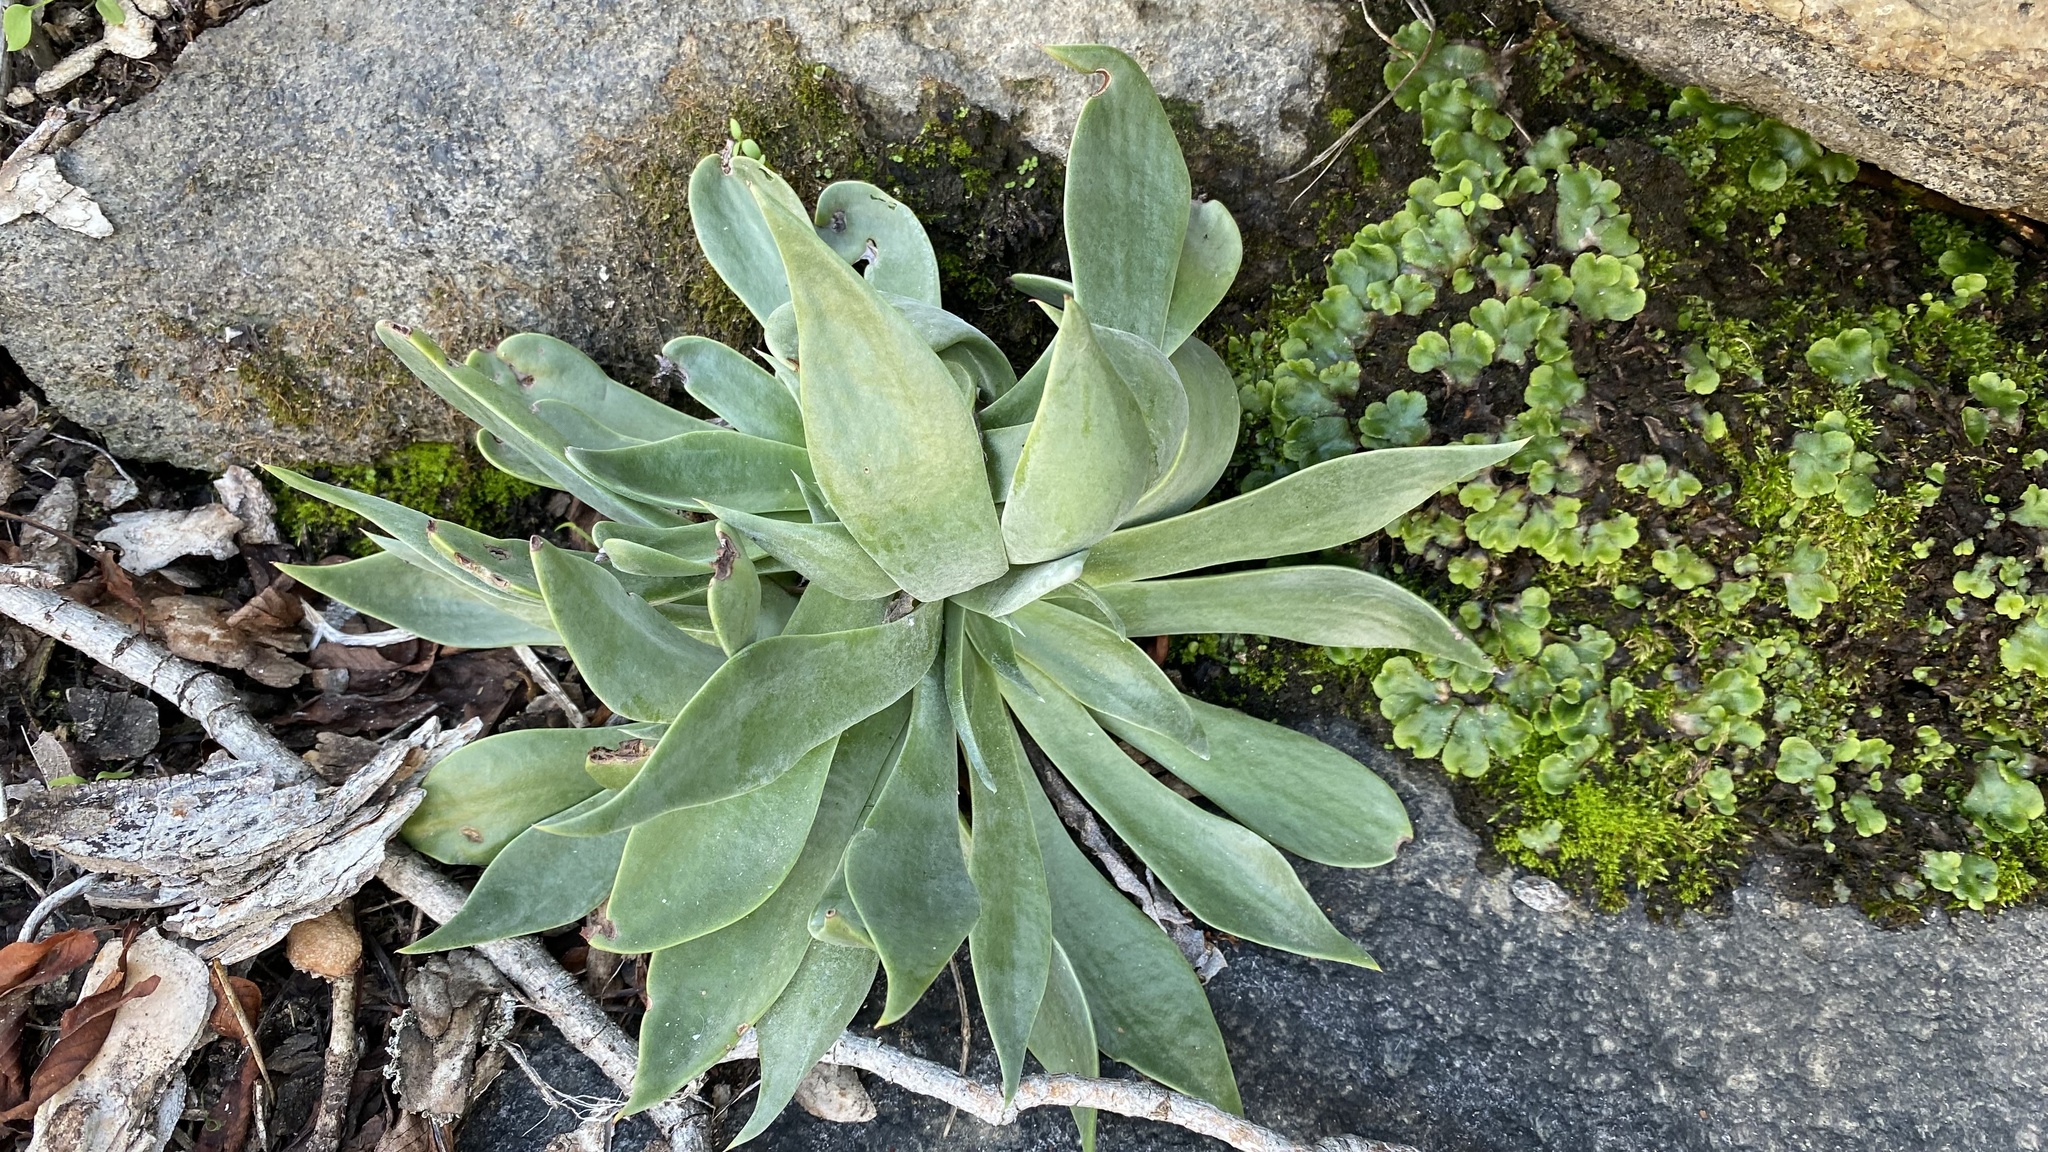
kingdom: Plantae
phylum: Tracheophyta
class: Magnoliopsida
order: Saxifragales
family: Crassulaceae
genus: Dudleya
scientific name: Dudleya cymosa
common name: Canyon dudleya
